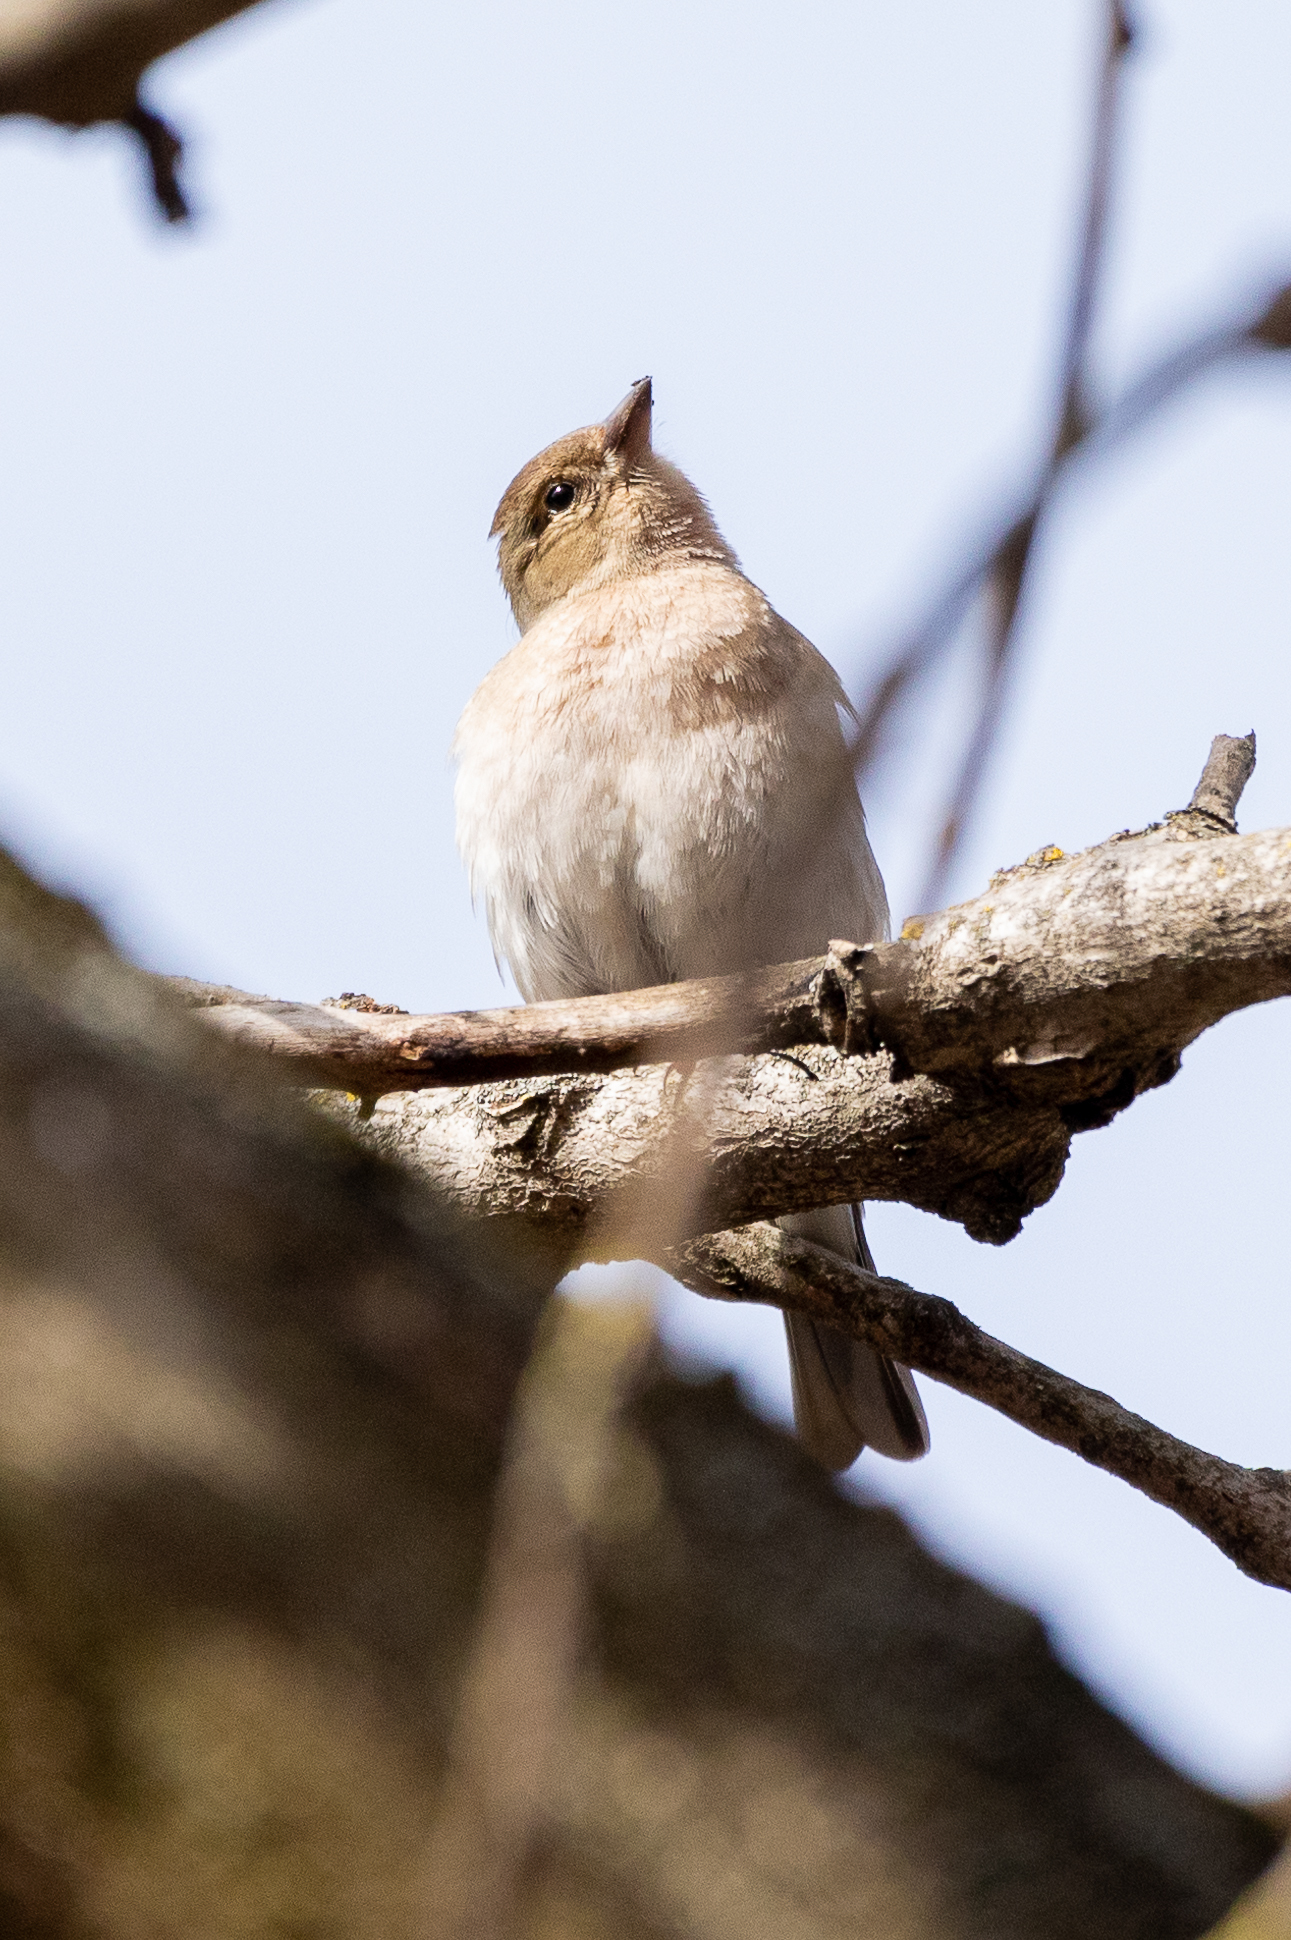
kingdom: Animalia
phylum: Chordata
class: Aves
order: Passeriformes
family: Fringillidae
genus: Fringilla
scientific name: Fringilla coelebs
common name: Common chaffinch
